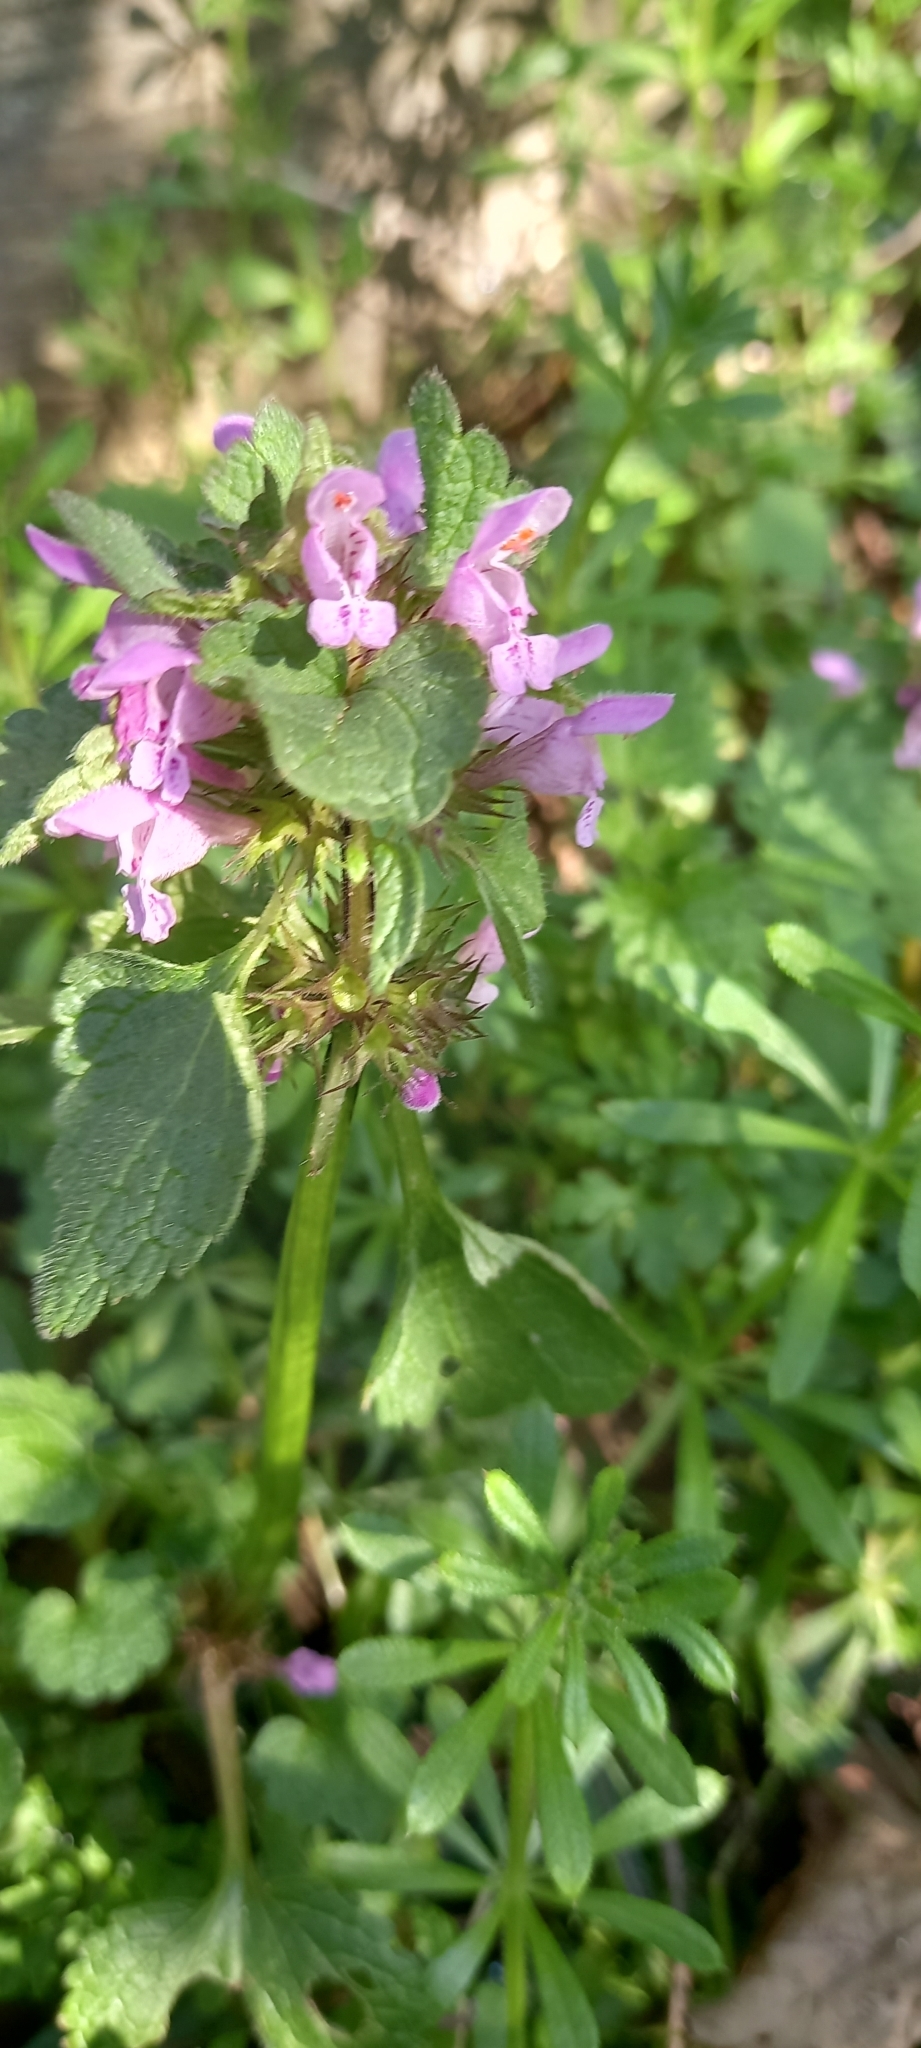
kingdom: Plantae
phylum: Tracheophyta
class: Magnoliopsida
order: Lamiales
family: Lamiaceae
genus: Lamium
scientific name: Lamium purpureum
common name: Red dead-nettle
